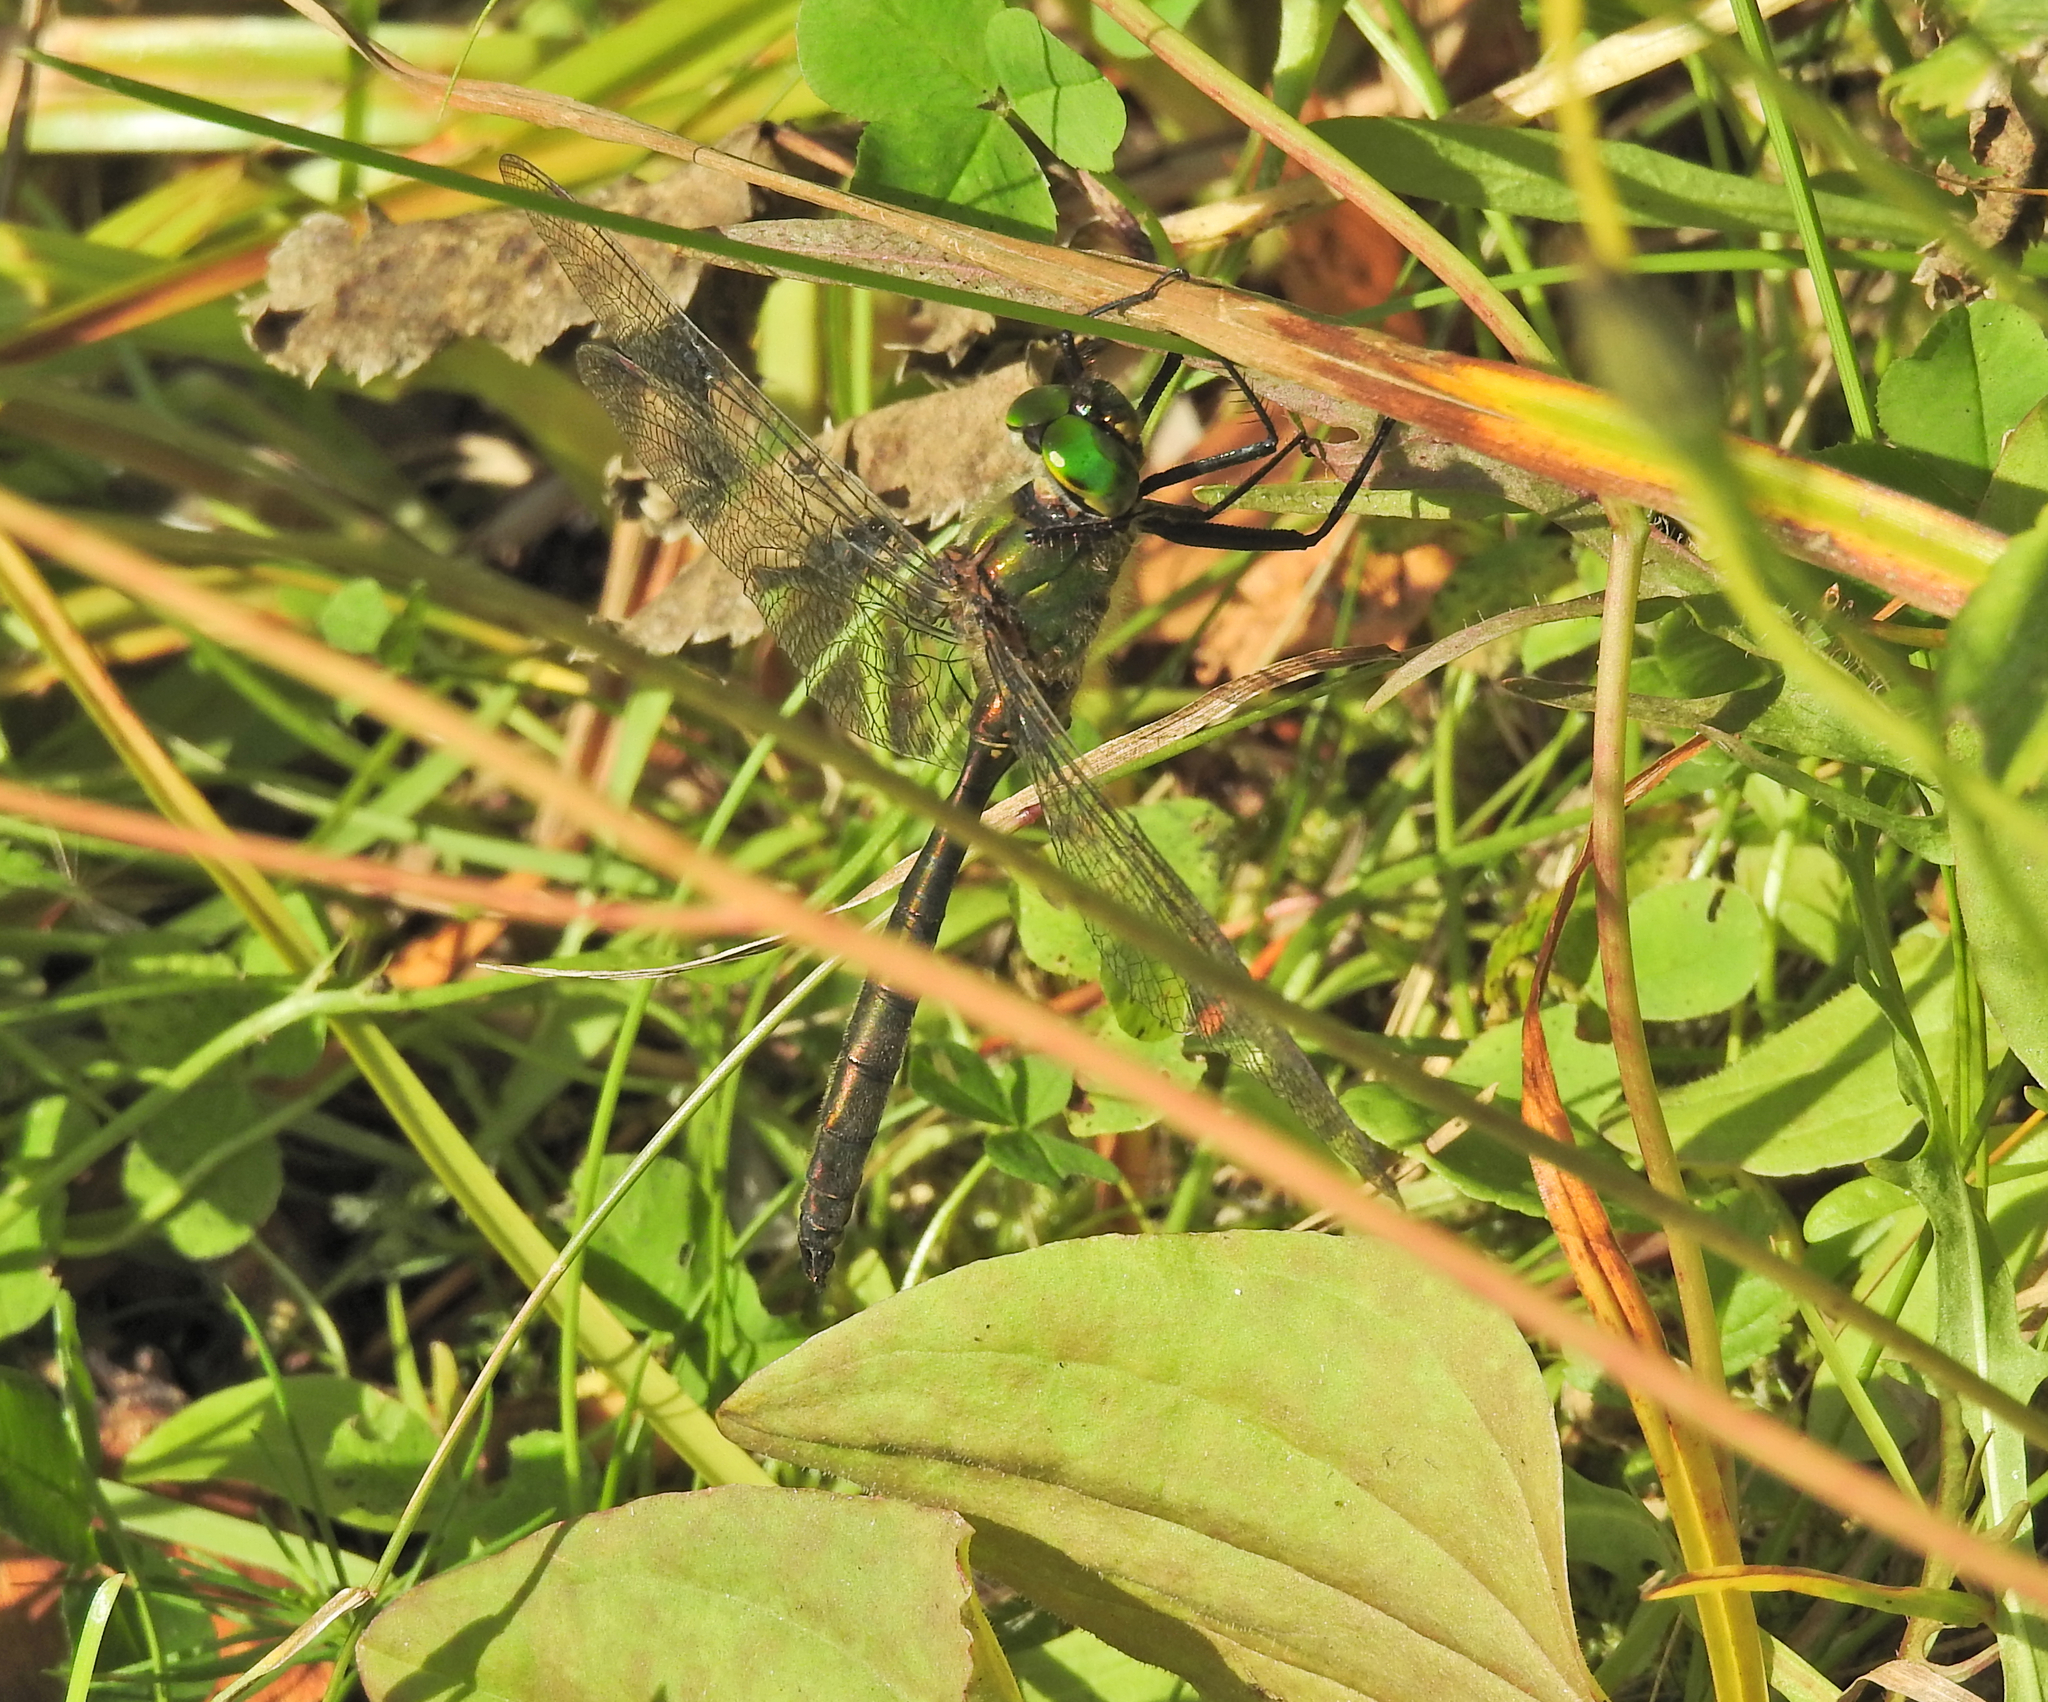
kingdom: Animalia
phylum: Arthropoda
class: Insecta
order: Odonata
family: Corduliidae
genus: Somatochlora
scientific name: Somatochlora metallica
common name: Brilliant emerald
